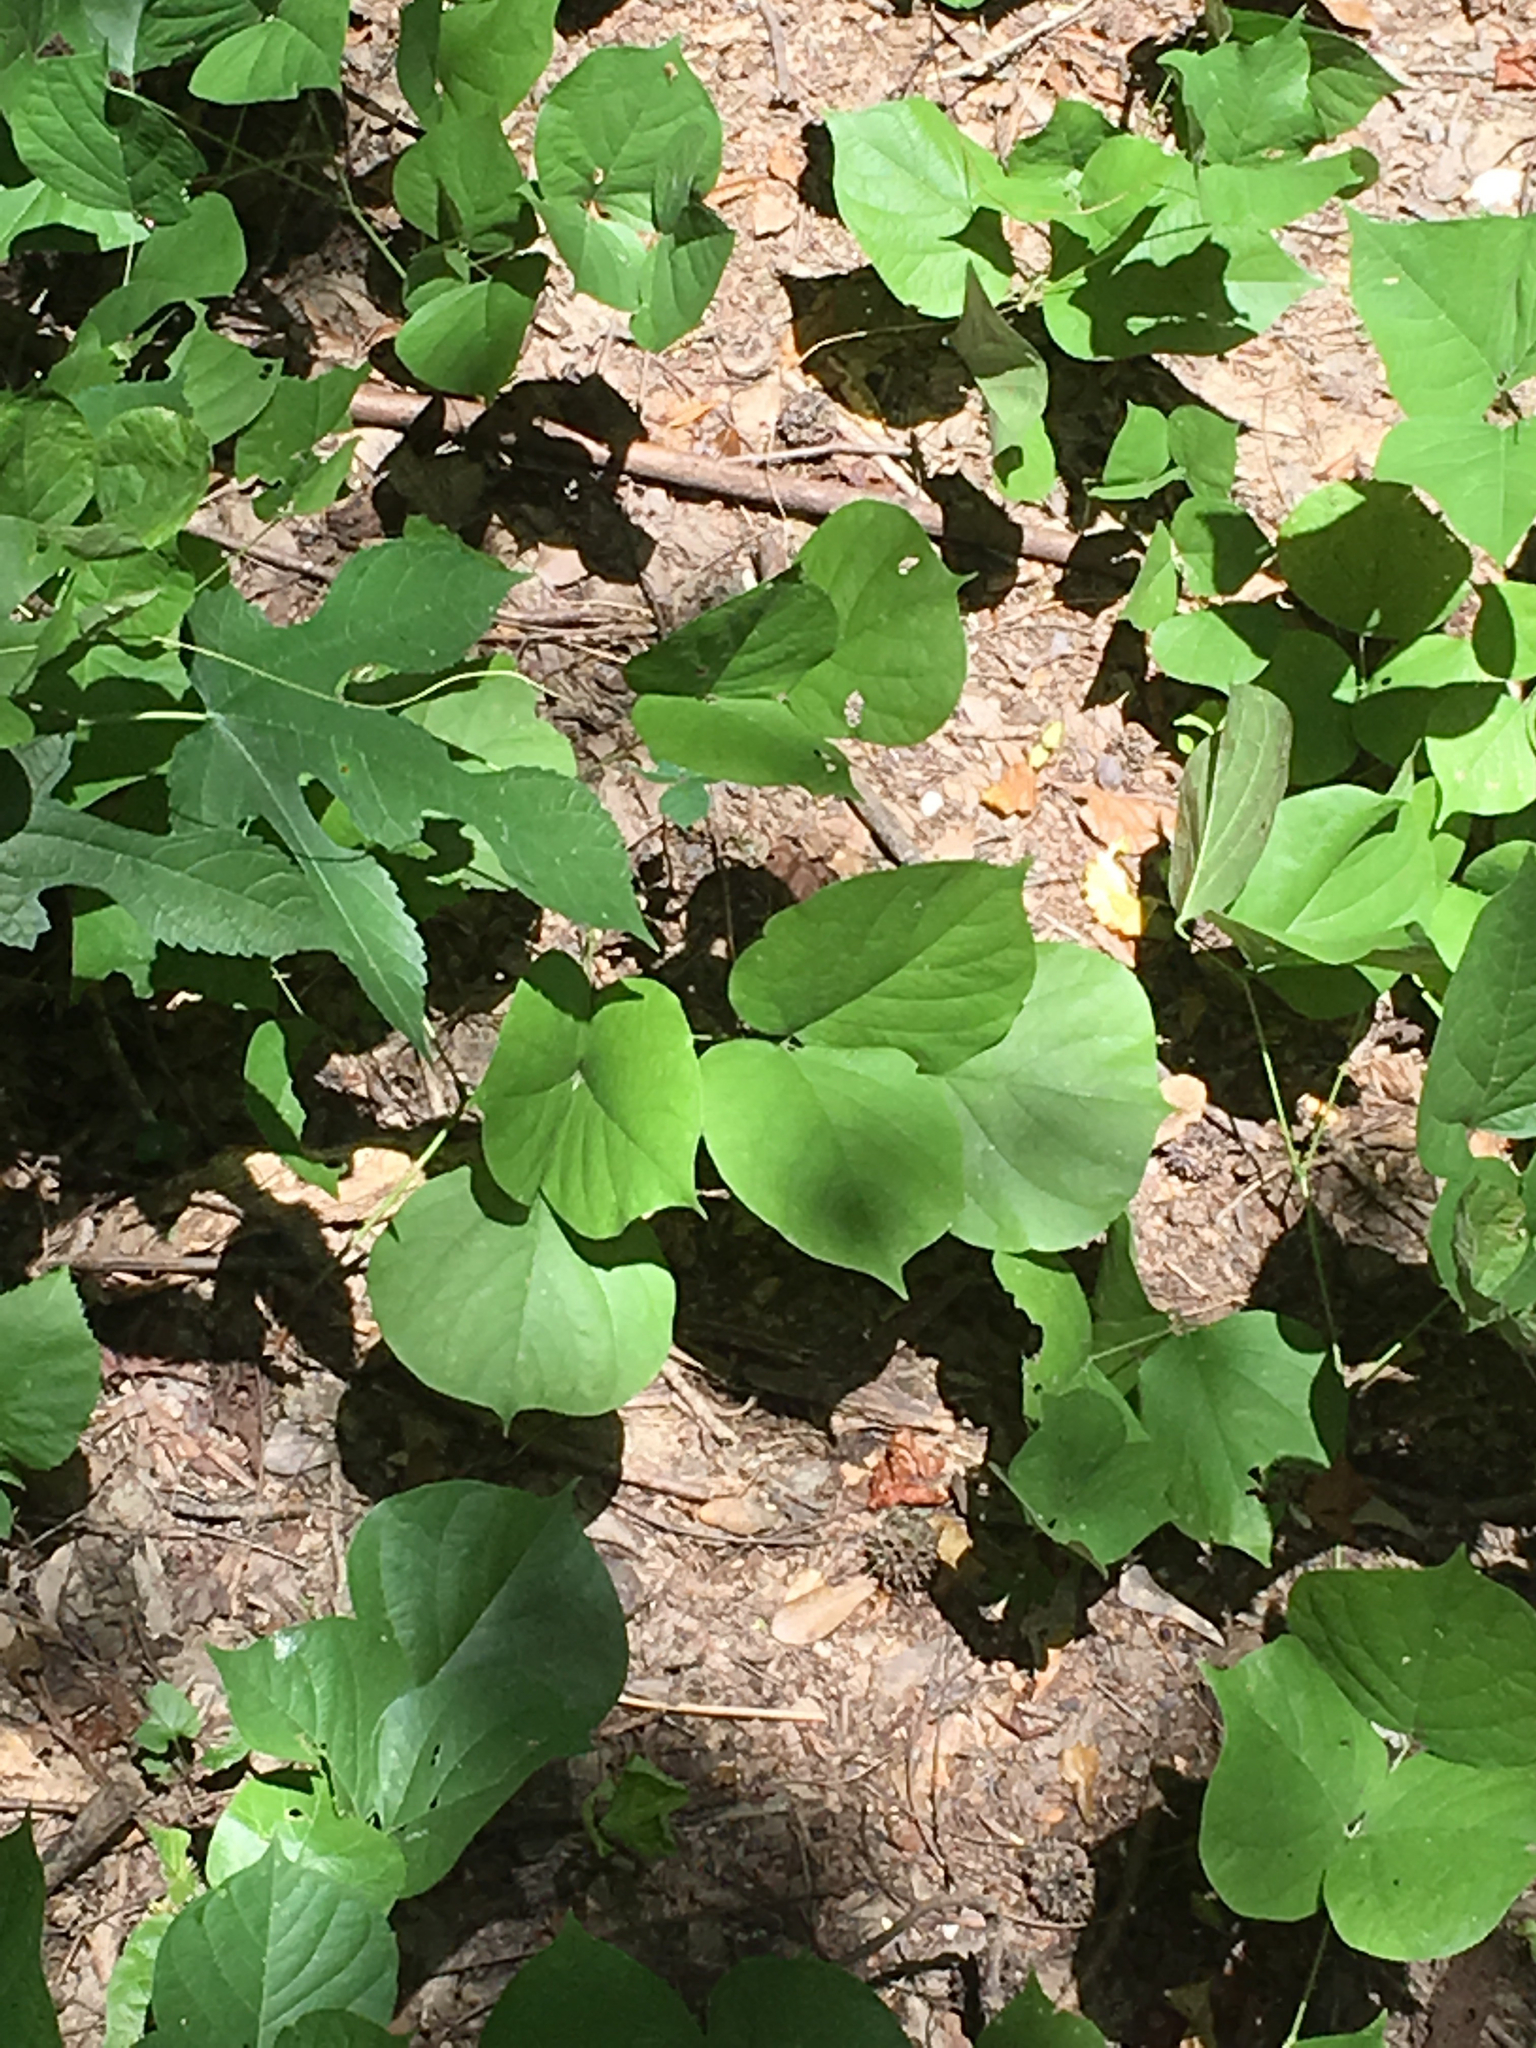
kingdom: Plantae
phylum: Tracheophyta
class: Magnoliopsida
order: Fabales
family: Fabaceae
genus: Lackeya
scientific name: Lackeya multiflora
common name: Boykin's clusterpea
